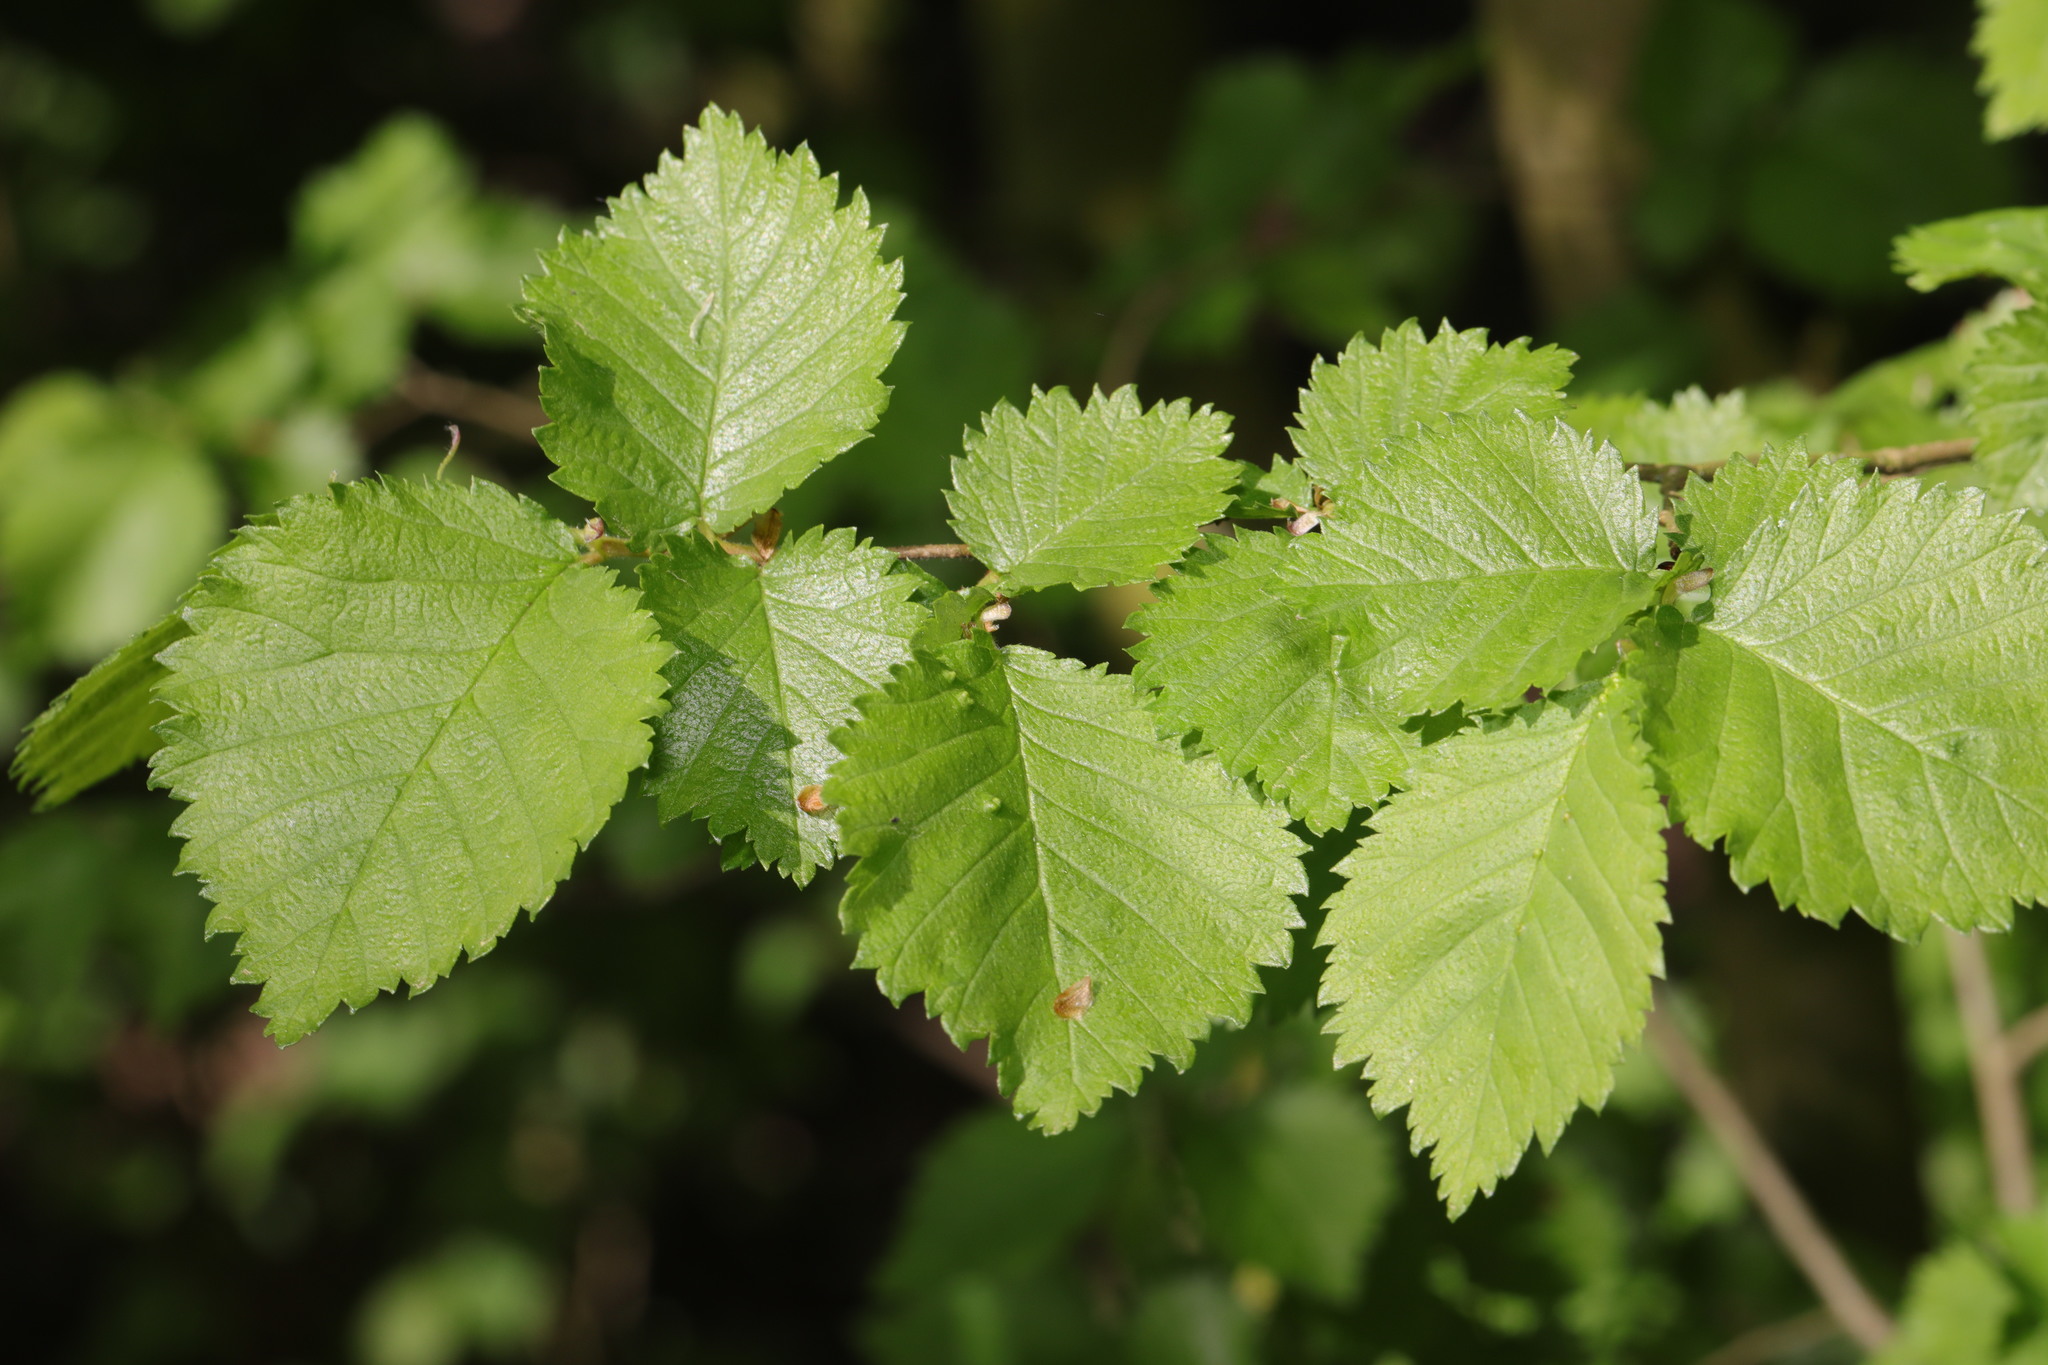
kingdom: Plantae
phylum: Tracheophyta
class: Magnoliopsida
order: Rosales
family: Ulmaceae
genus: Ulmus
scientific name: Ulmus minor
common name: Small-leaved elm
